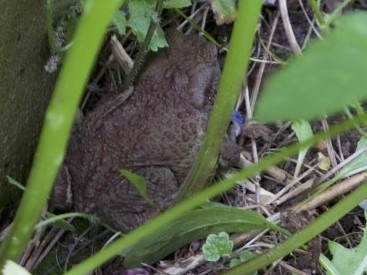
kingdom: Animalia
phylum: Chordata
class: Amphibia
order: Anura
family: Bufonidae
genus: Bufo
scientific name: Bufo bufo
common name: Common toad
